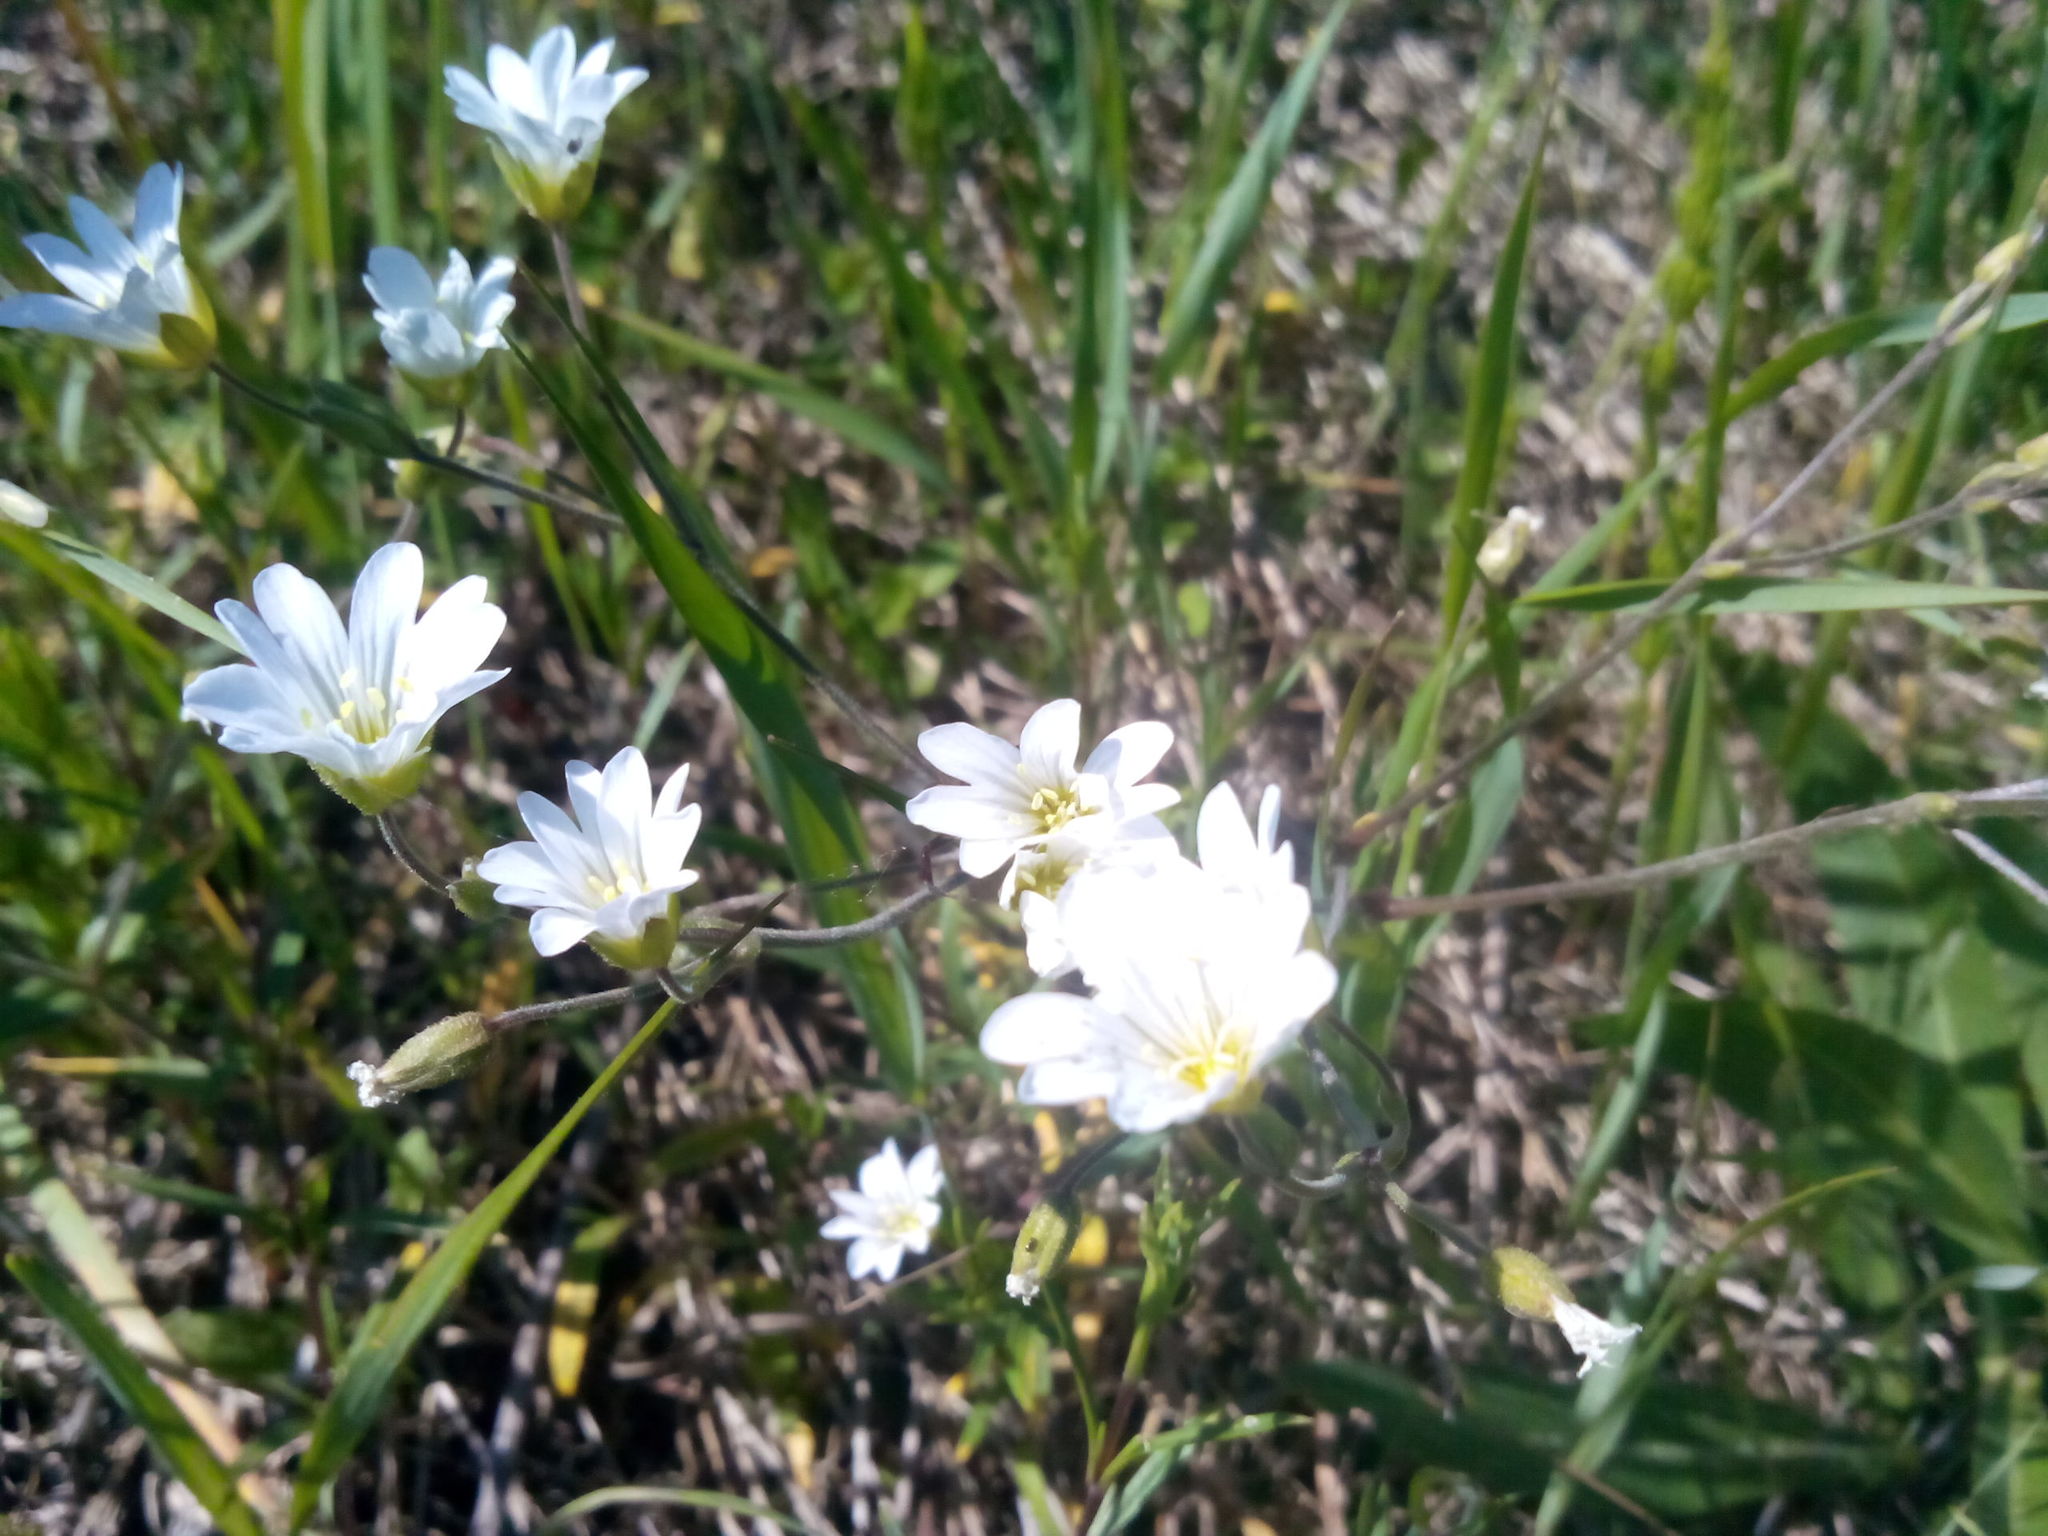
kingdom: Plantae
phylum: Tracheophyta
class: Magnoliopsida
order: Caryophyllales
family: Caryophyllaceae
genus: Cerastium
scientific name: Cerastium arvense
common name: Field mouse-ear
